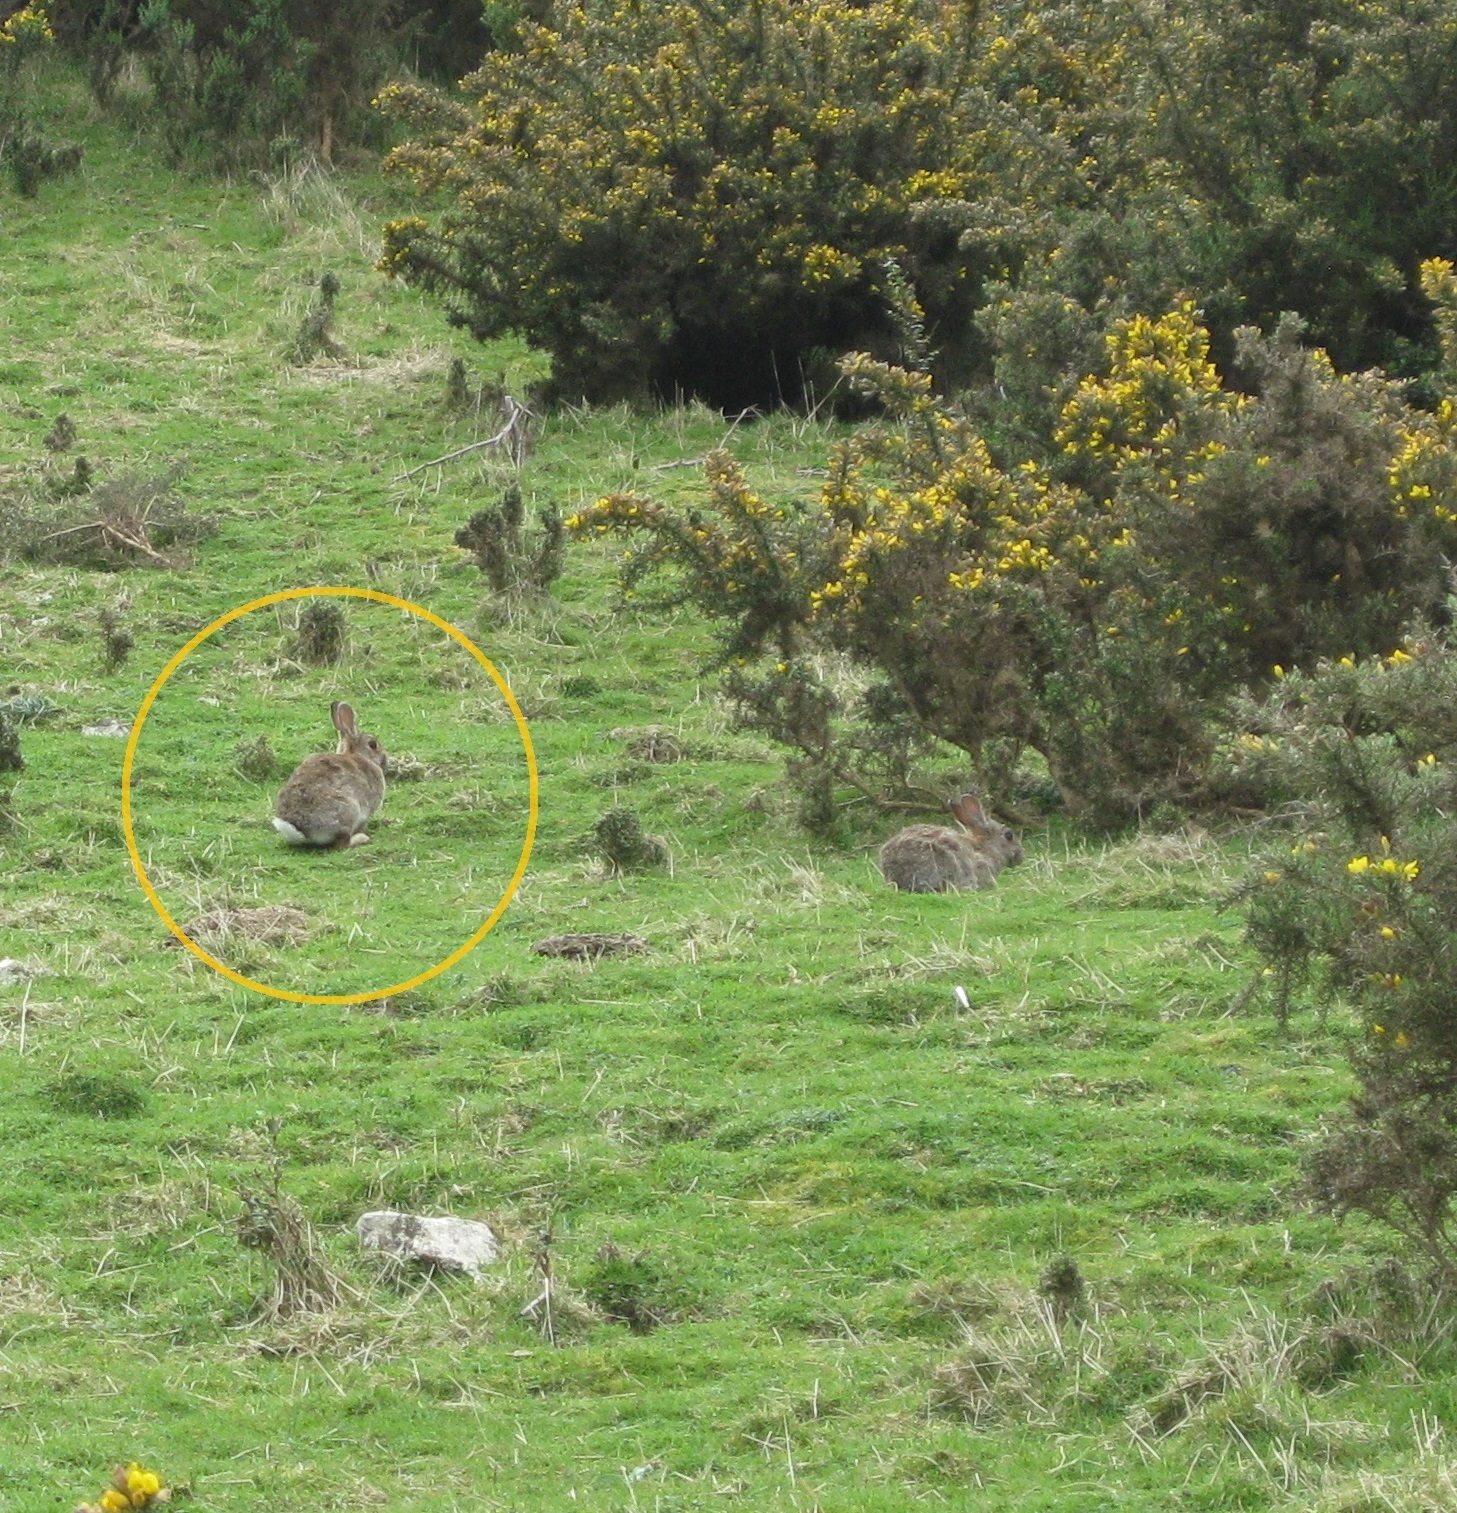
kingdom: Animalia
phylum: Chordata
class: Mammalia
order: Lagomorpha
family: Leporidae
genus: Oryctolagus
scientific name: Oryctolagus cuniculus
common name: European rabbit
